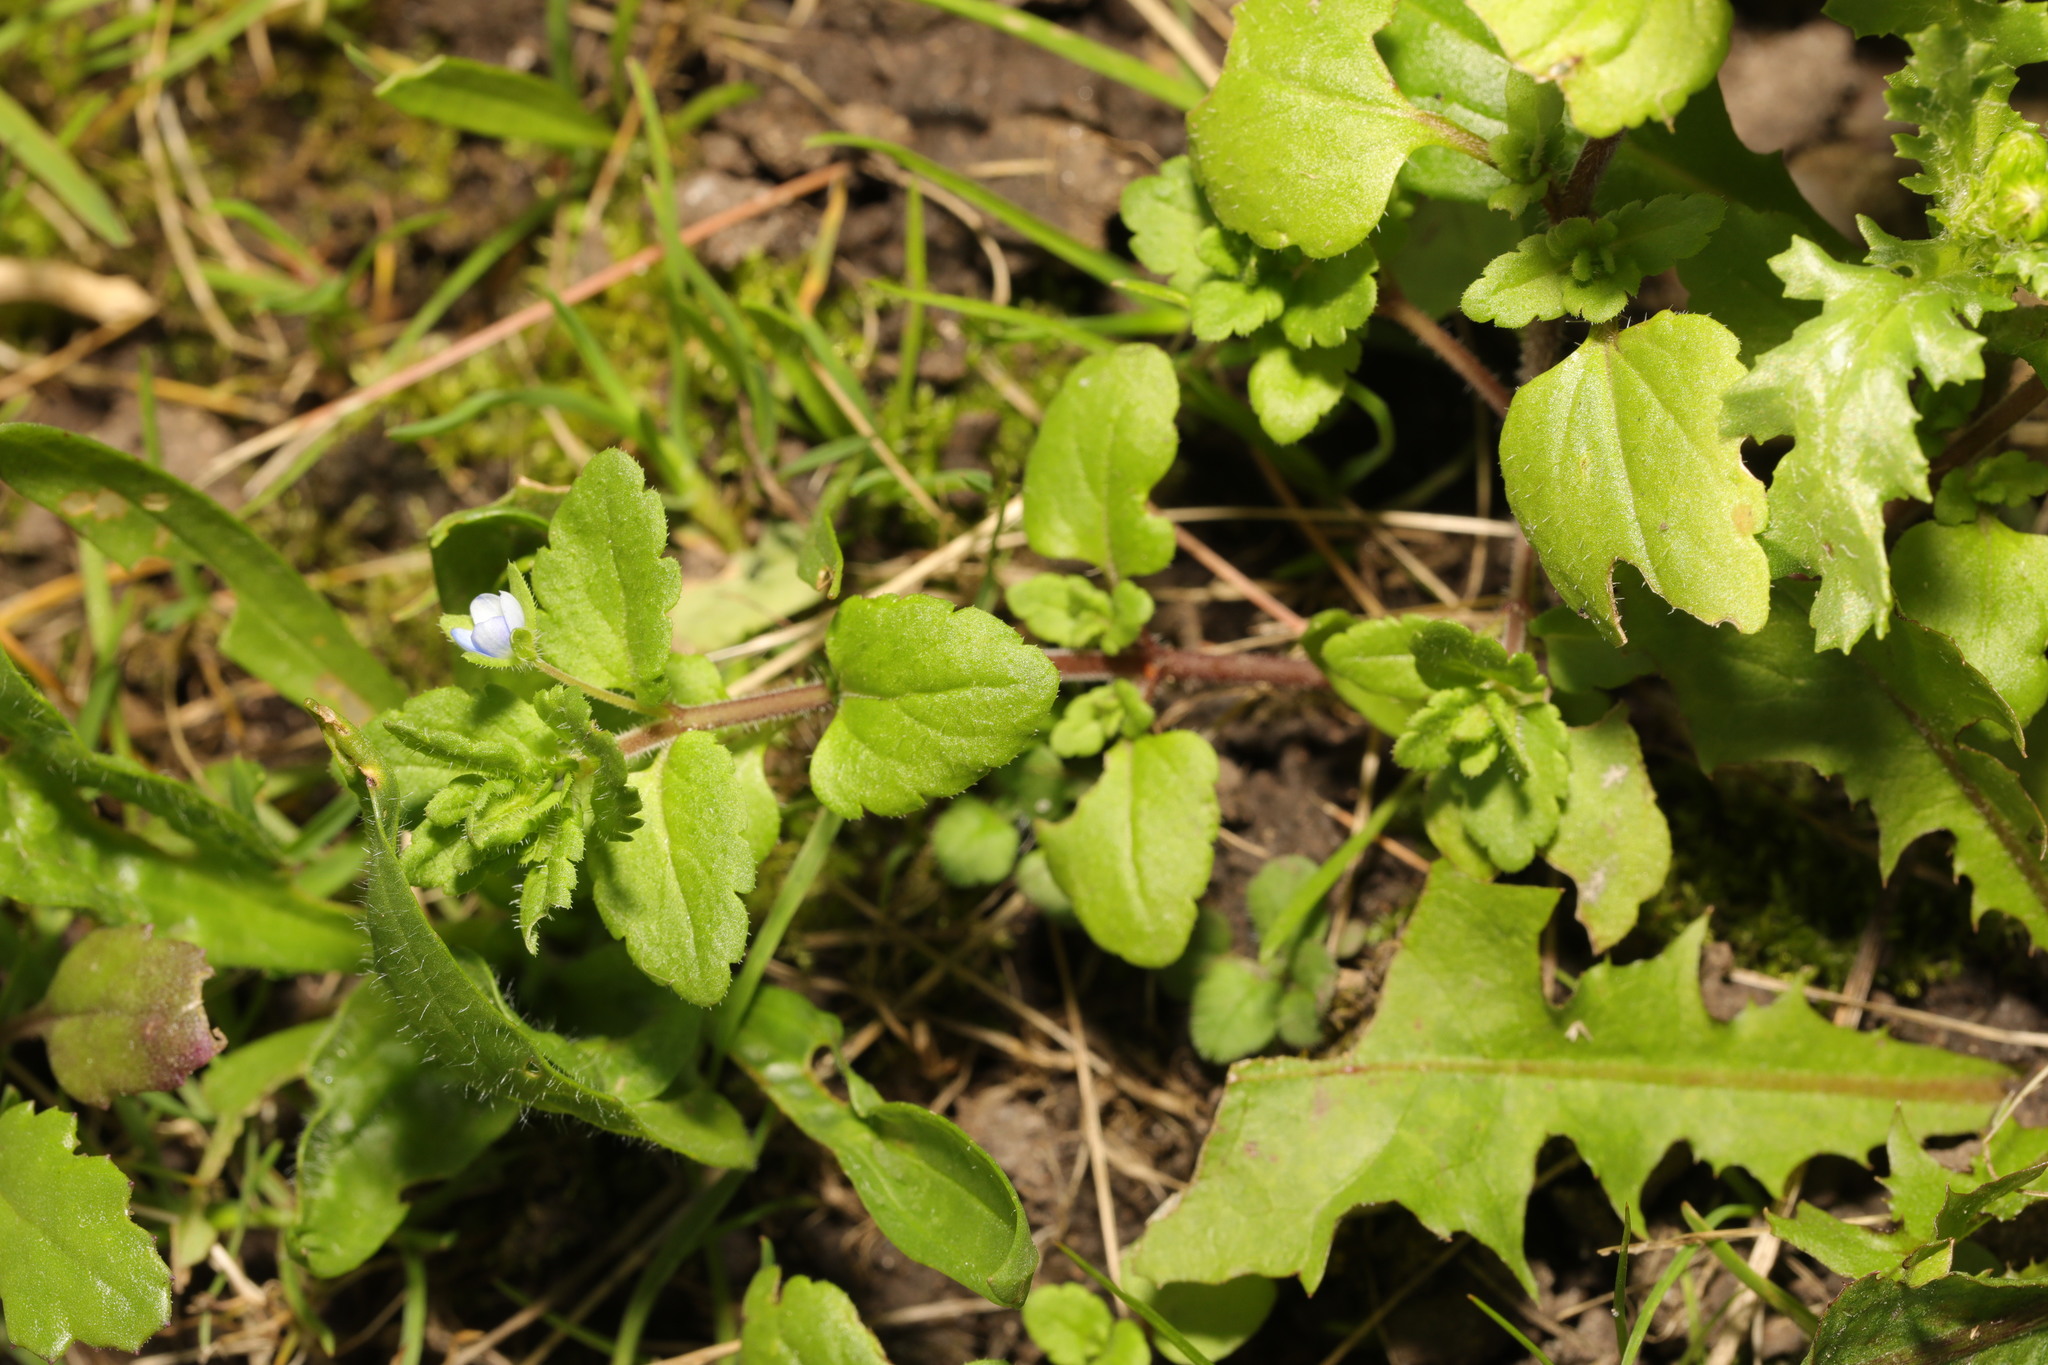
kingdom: Plantae
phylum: Tracheophyta
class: Magnoliopsida
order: Lamiales
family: Plantaginaceae
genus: Veronica
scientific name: Veronica persica
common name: Common field-speedwell
